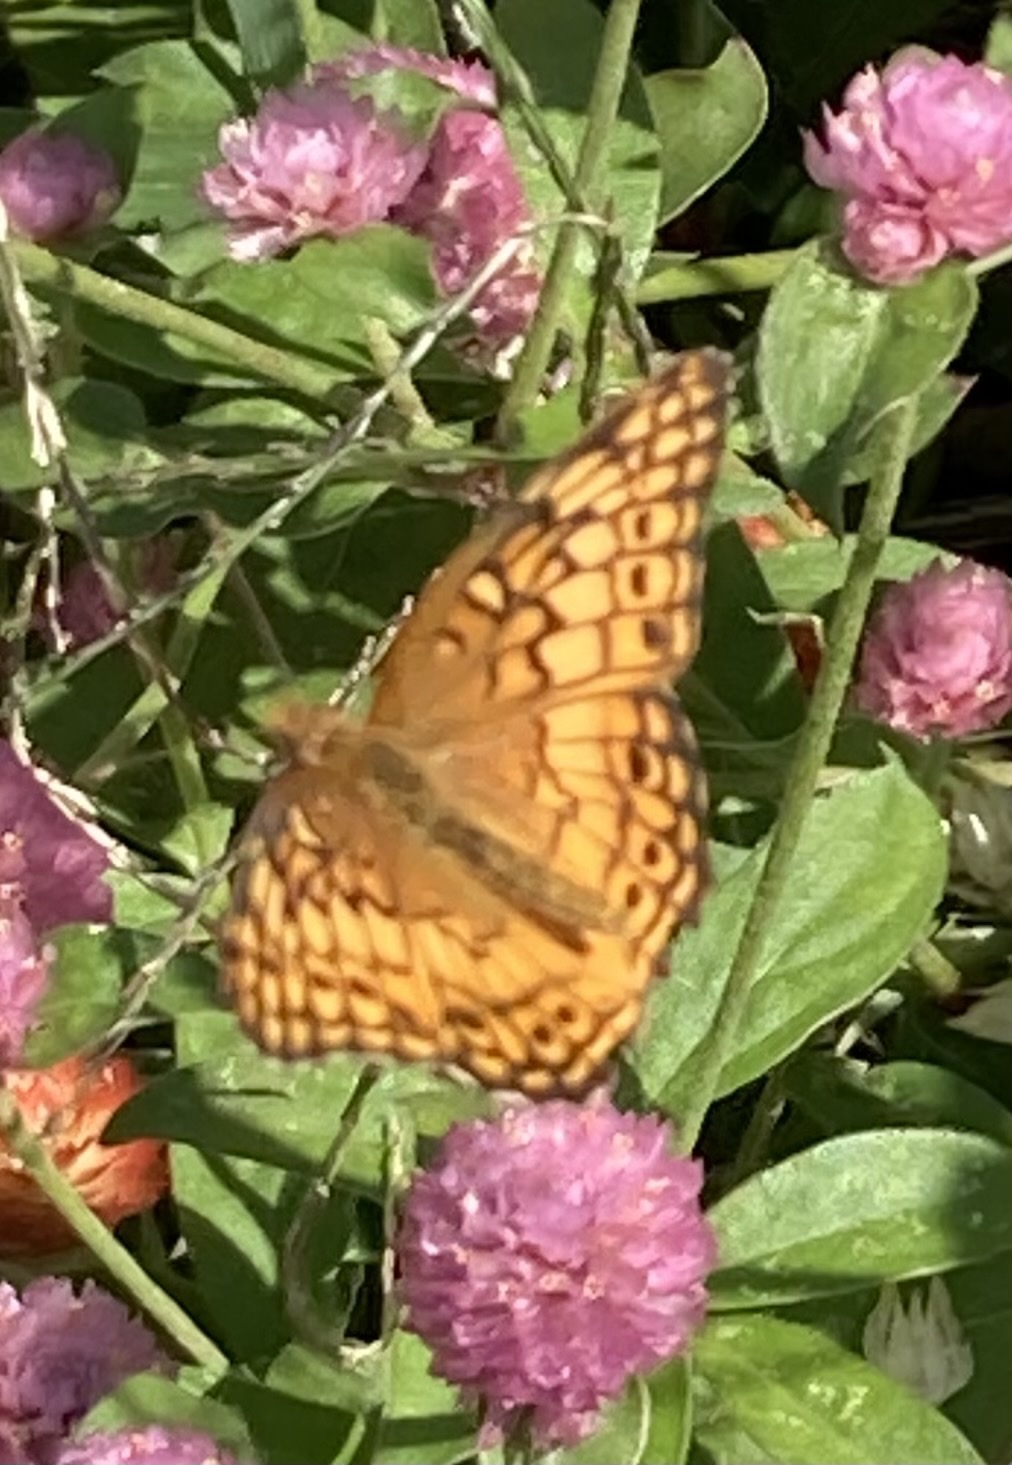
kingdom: Animalia
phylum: Arthropoda
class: Insecta
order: Lepidoptera
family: Nymphalidae
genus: Euptoieta
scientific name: Euptoieta claudia
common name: Variegated fritillary
